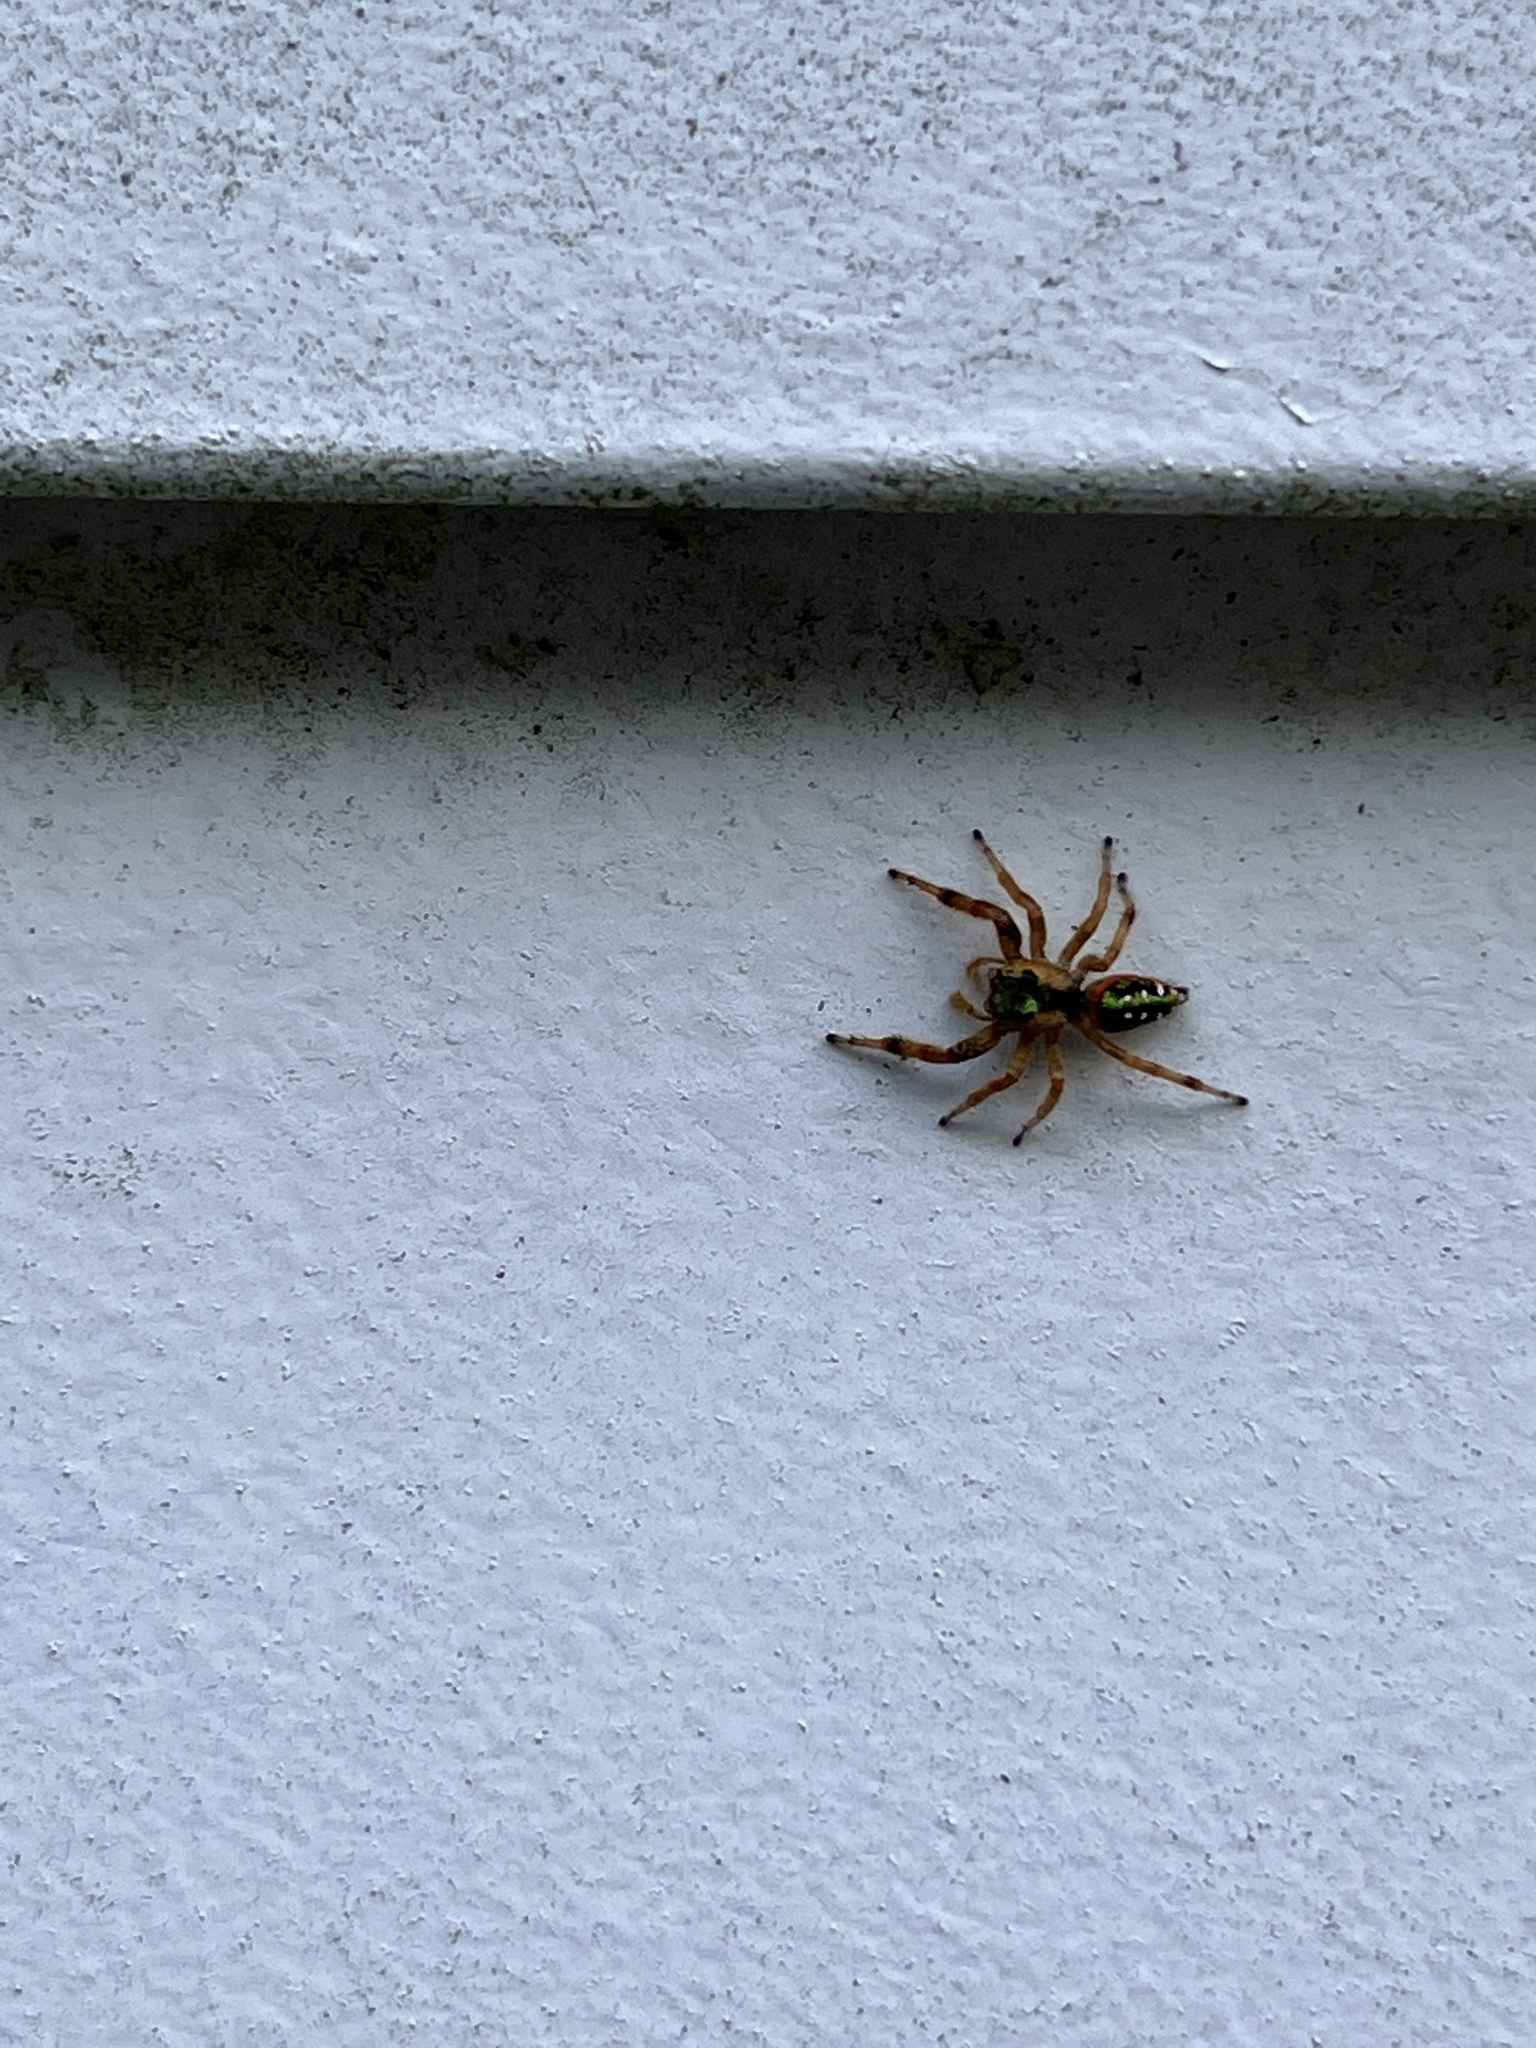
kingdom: Animalia
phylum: Arthropoda
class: Arachnida
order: Araneae
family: Salticidae
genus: Paraphidippus
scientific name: Paraphidippus aurantius
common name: Jumping spiders
